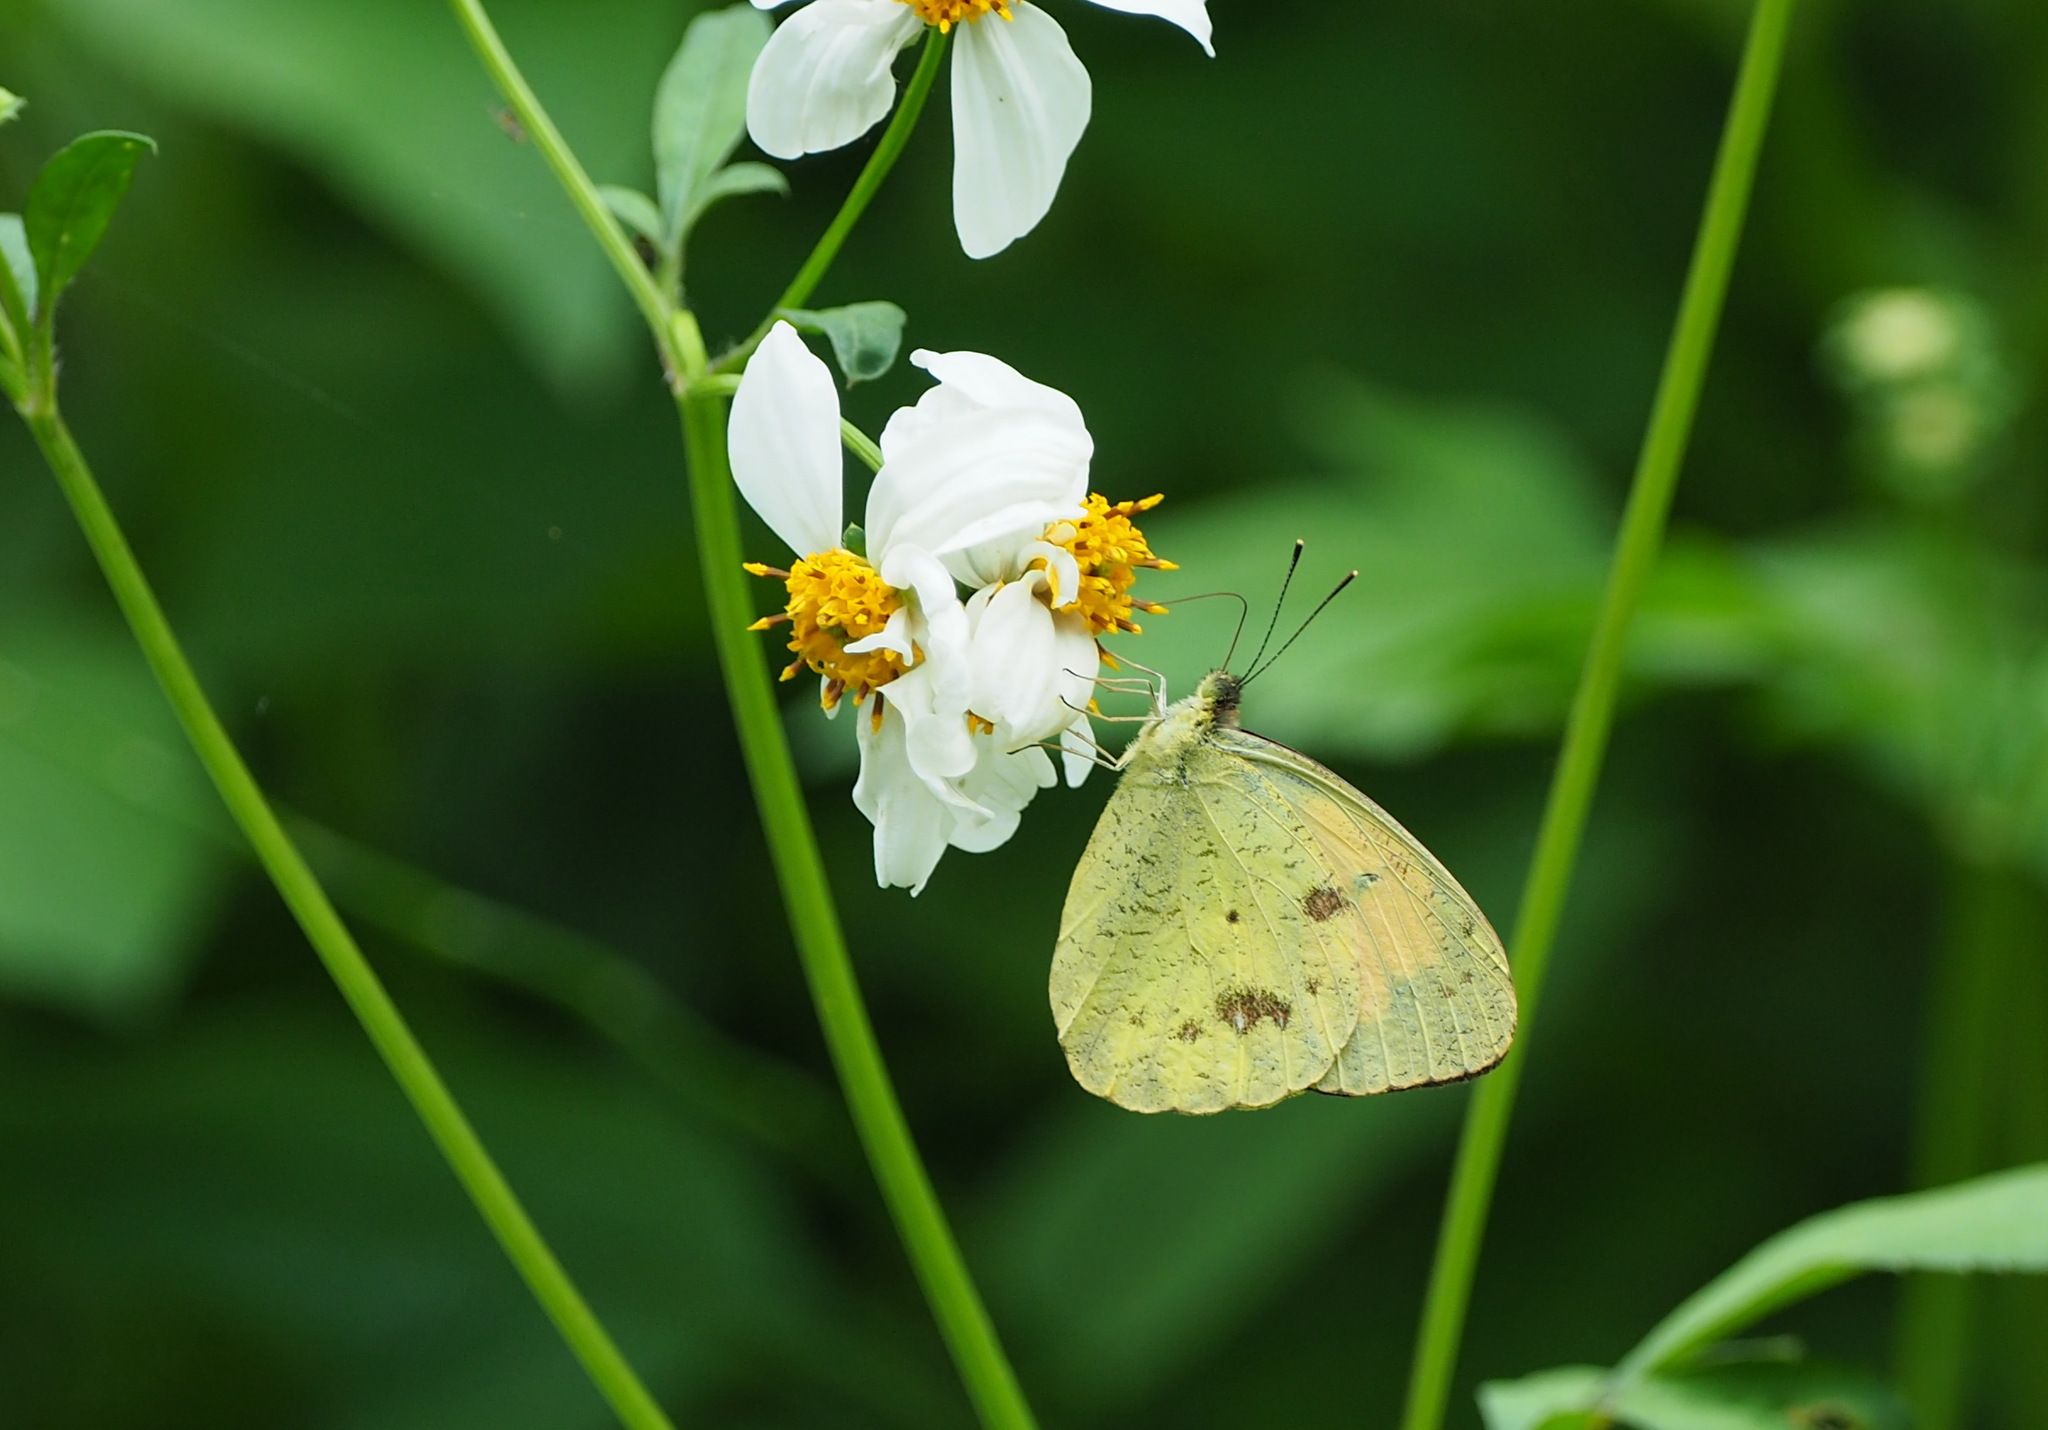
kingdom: Animalia
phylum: Arthropoda
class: Insecta
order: Lepidoptera
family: Pieridae
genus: Ixias
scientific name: Ixias pyrene
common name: Yellow orange tip
